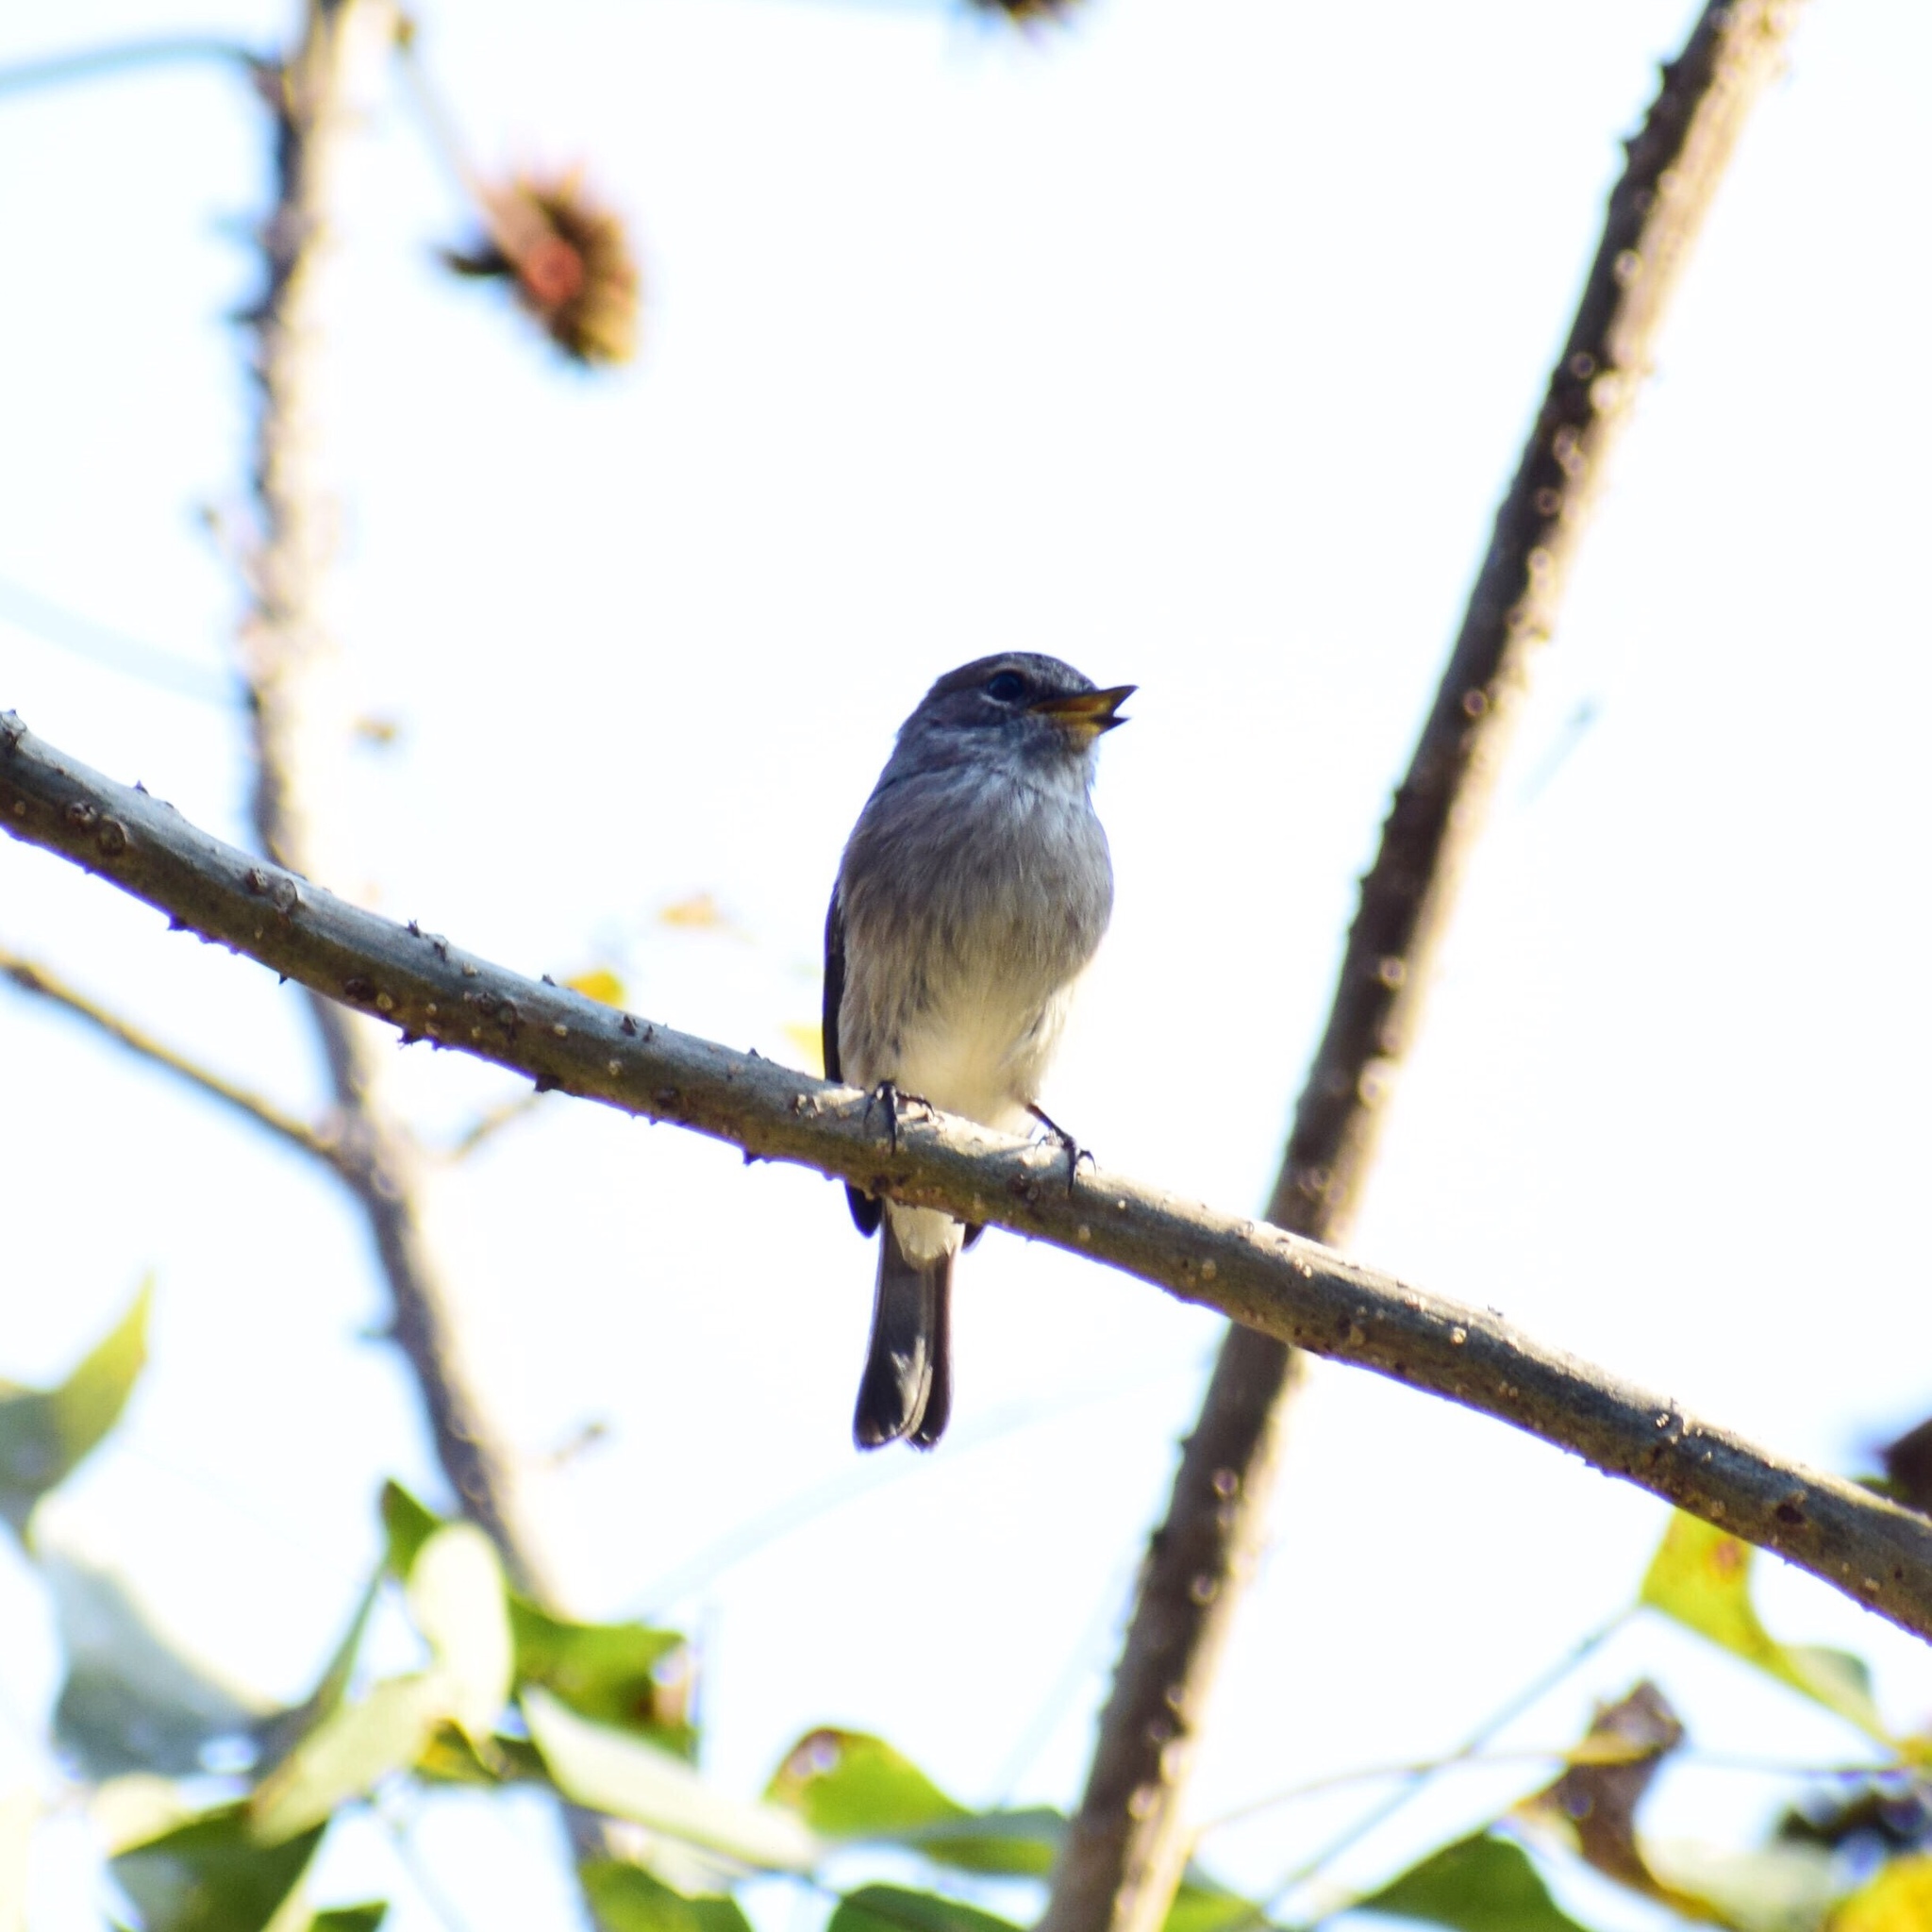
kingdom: Animalia
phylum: Chordata
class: Aves
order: Passeriformes
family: Muscicapidae
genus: Muscicapa
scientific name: Muscicapa adusta
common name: African dusky flycatcher
